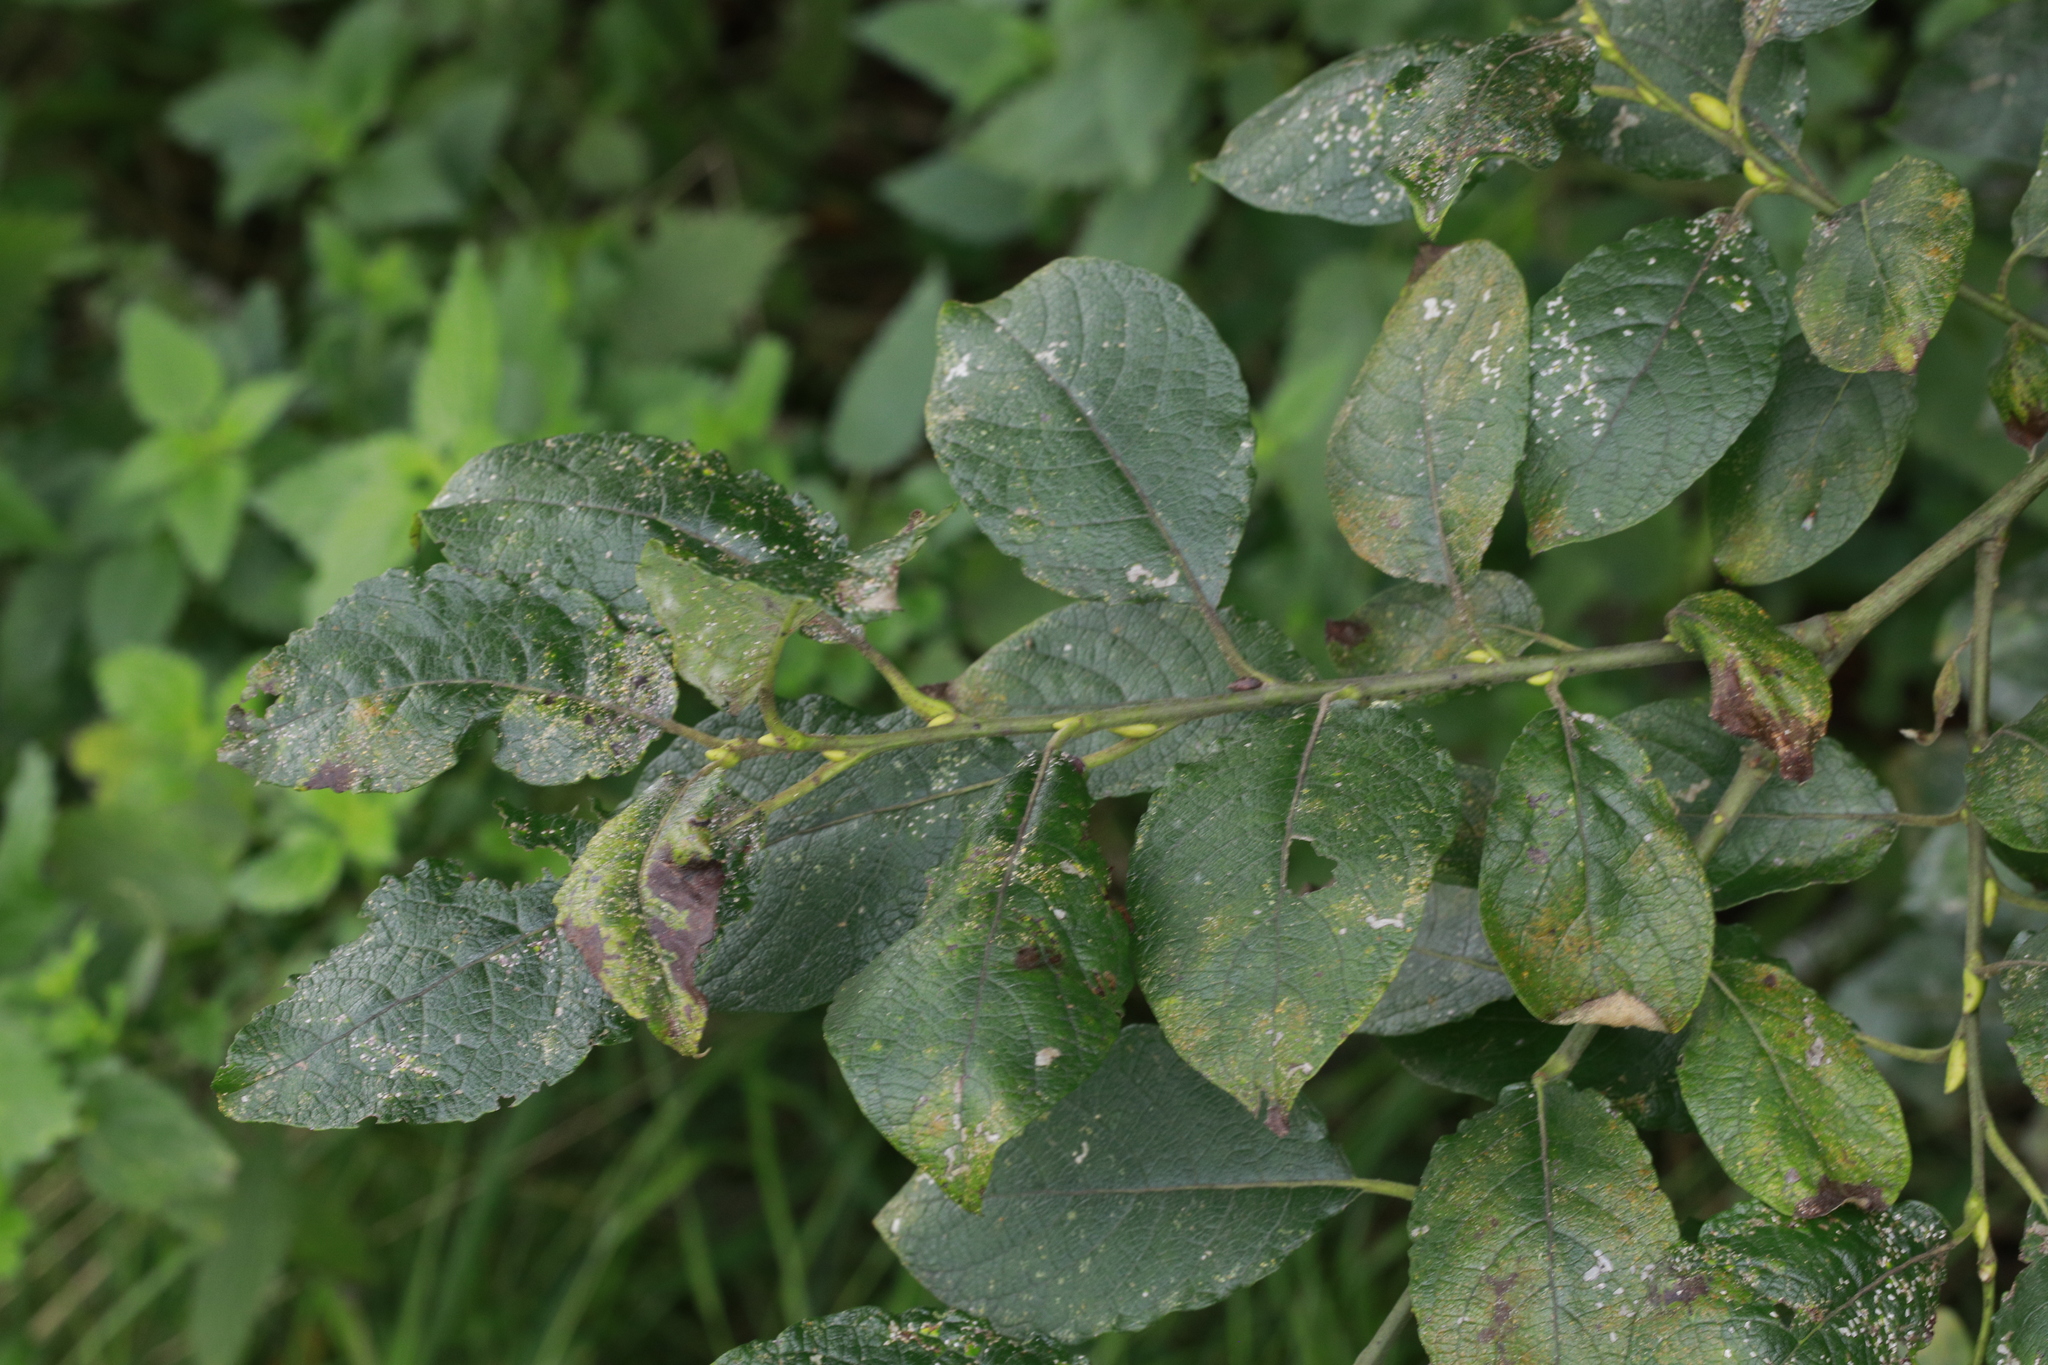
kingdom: Plantae
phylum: Tracheophyta
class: Magnoliopsida
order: Malpighiales
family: Salicaceae
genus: Salix
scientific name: Salix caprea
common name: Goat willow
